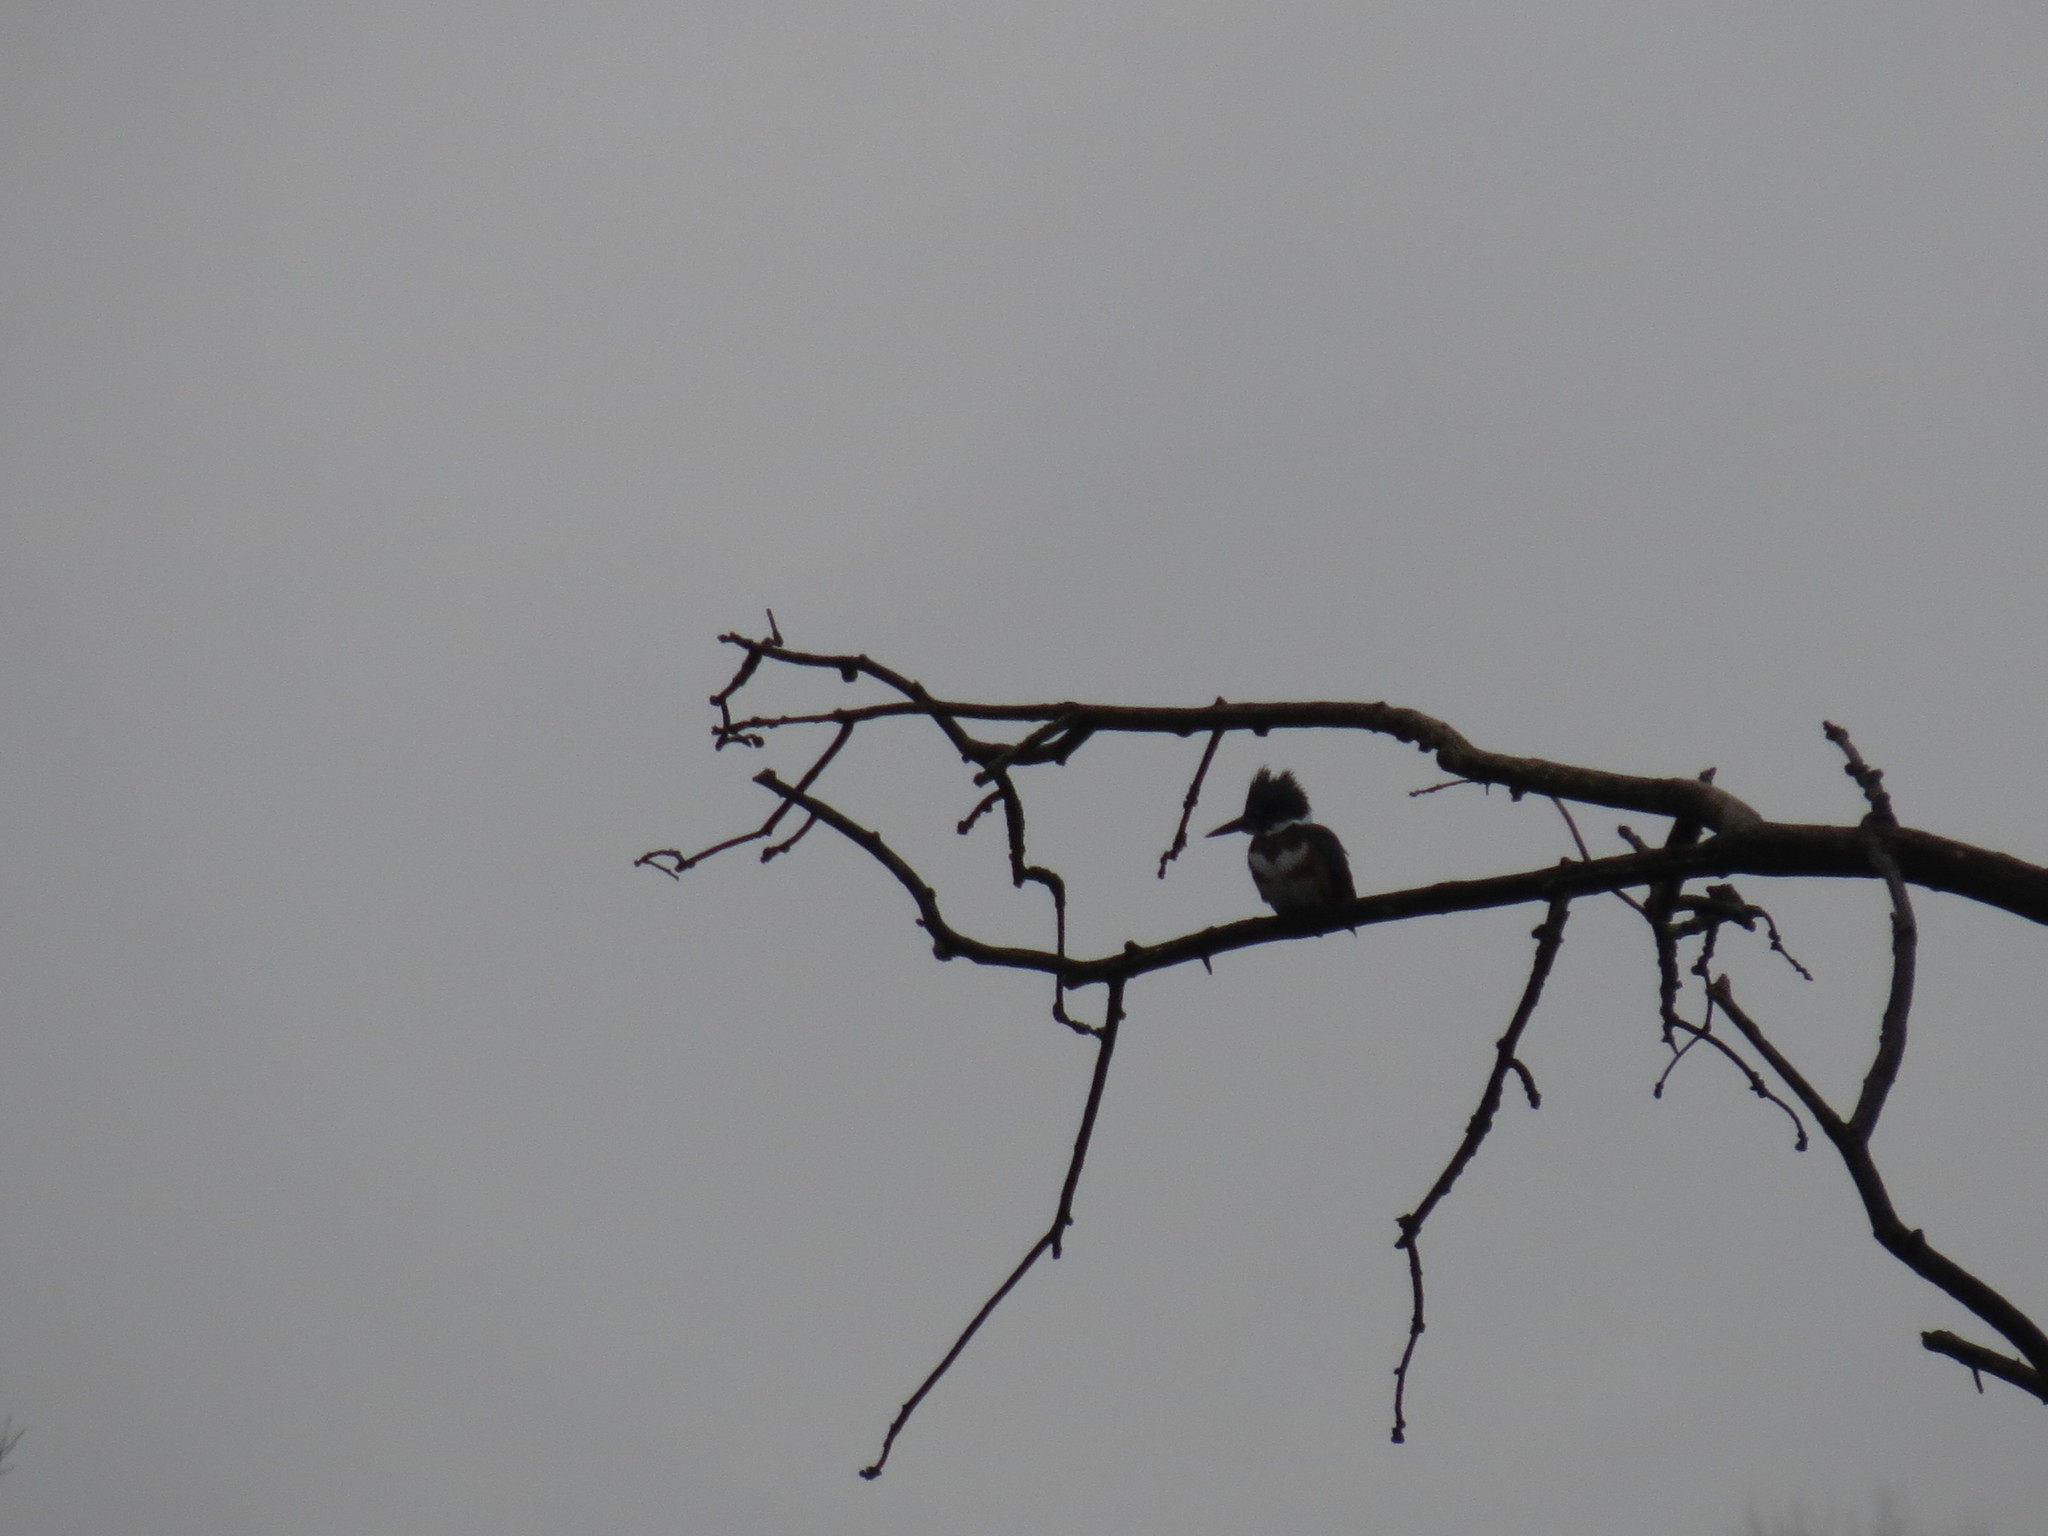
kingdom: Animalia
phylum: Chordata
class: Aves
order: Coraciiformes
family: Alcedinidae
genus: Megaceryle
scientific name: Megaceryle alcyon
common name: Belted kingfisher
